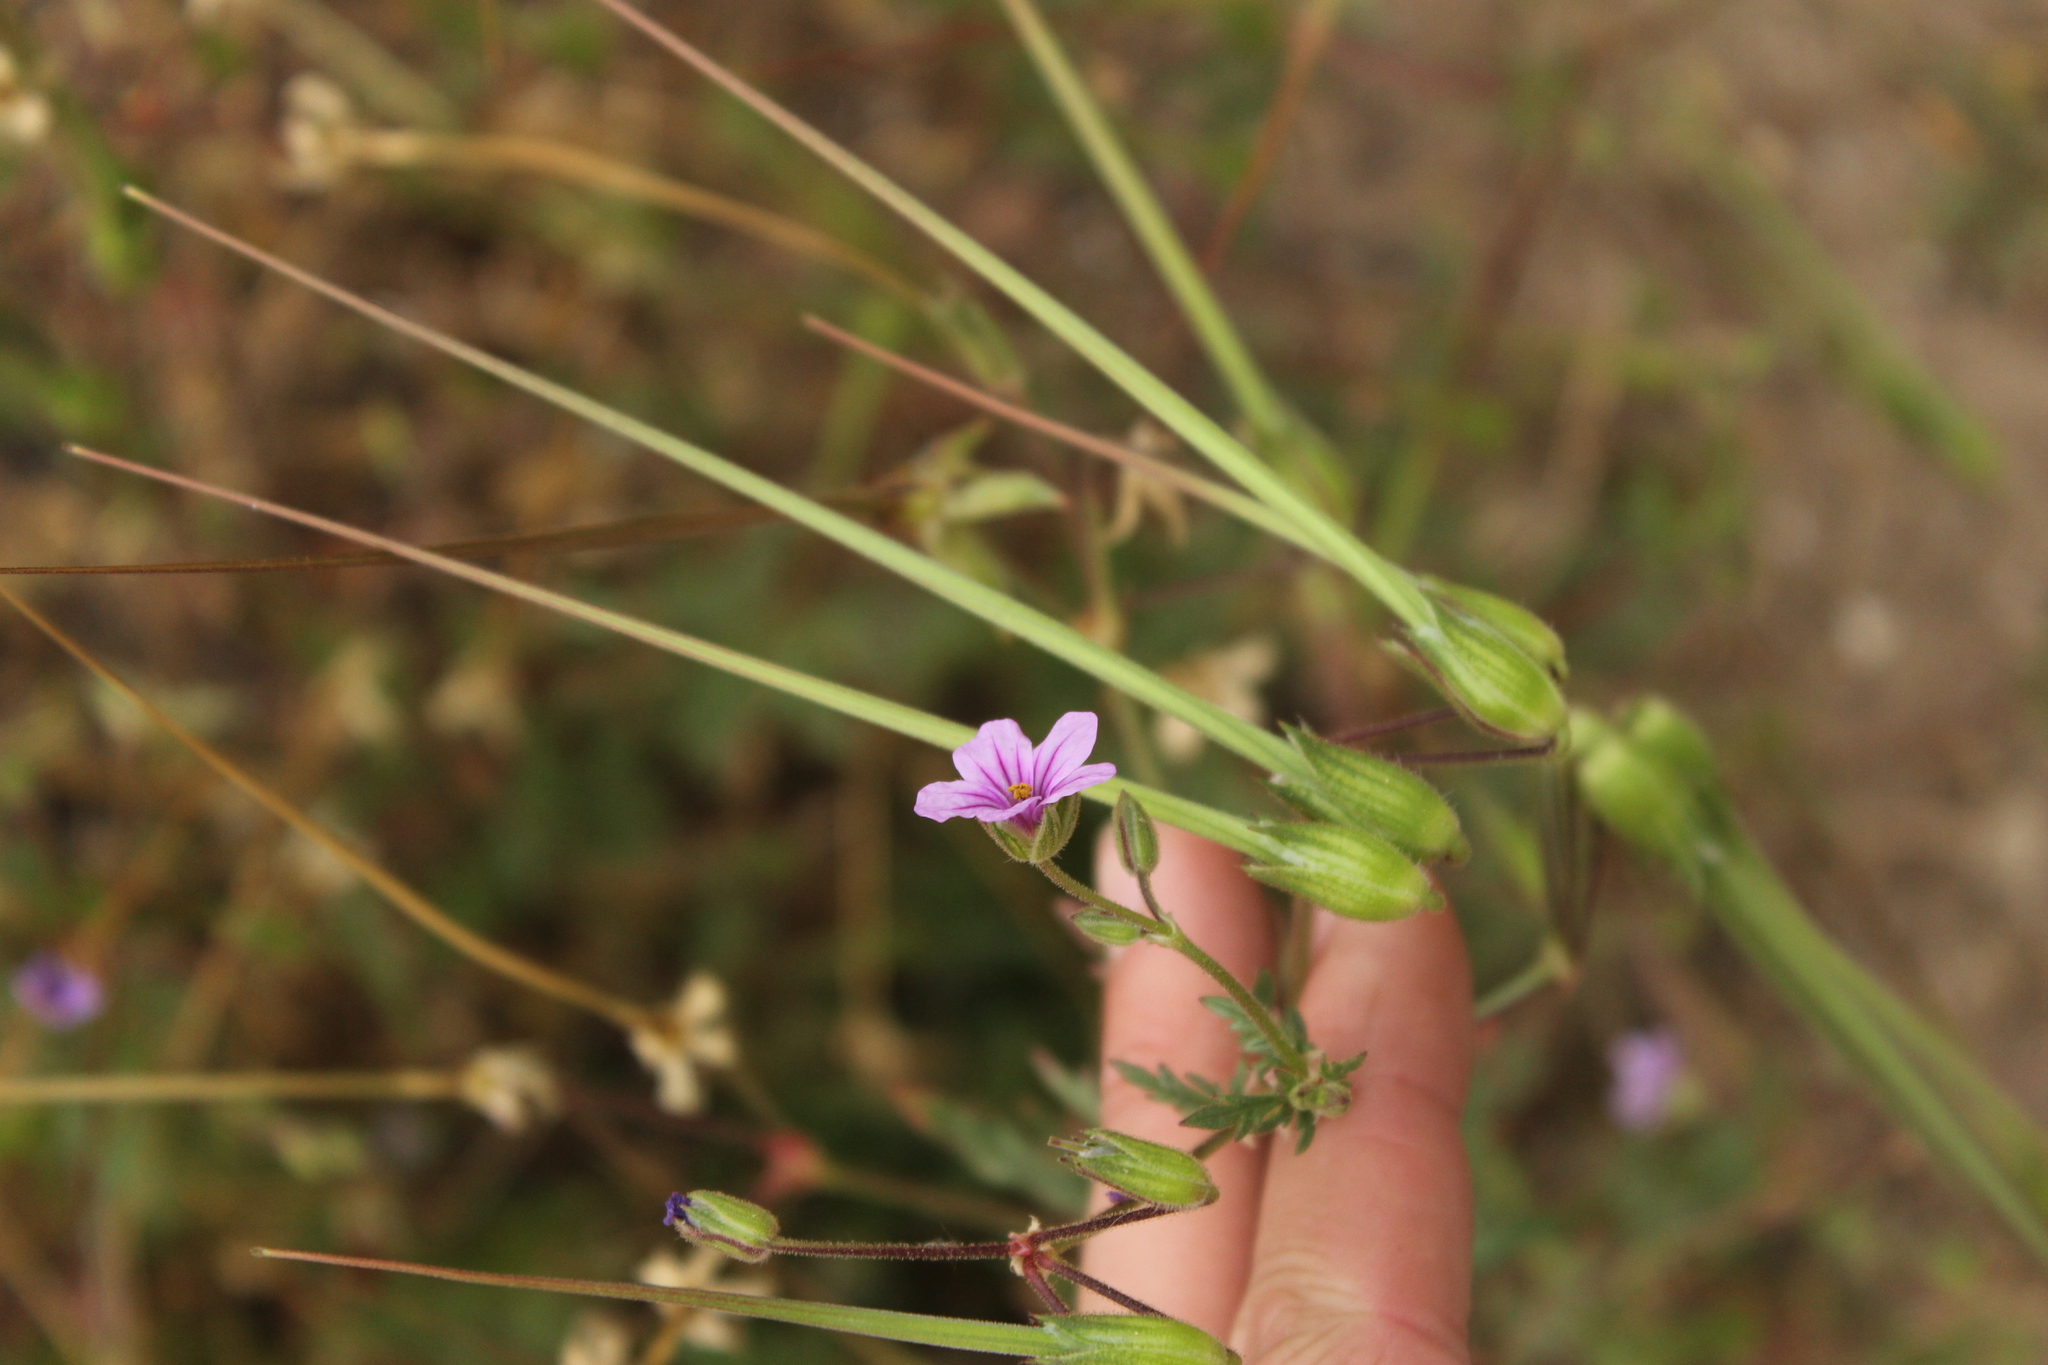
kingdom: Plantae
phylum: Tracheophyta
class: Magnoliopsida
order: Geraniales
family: Geraniaceae
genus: Erodium
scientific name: Erodium botrys
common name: Mediterranean stork's-bill
